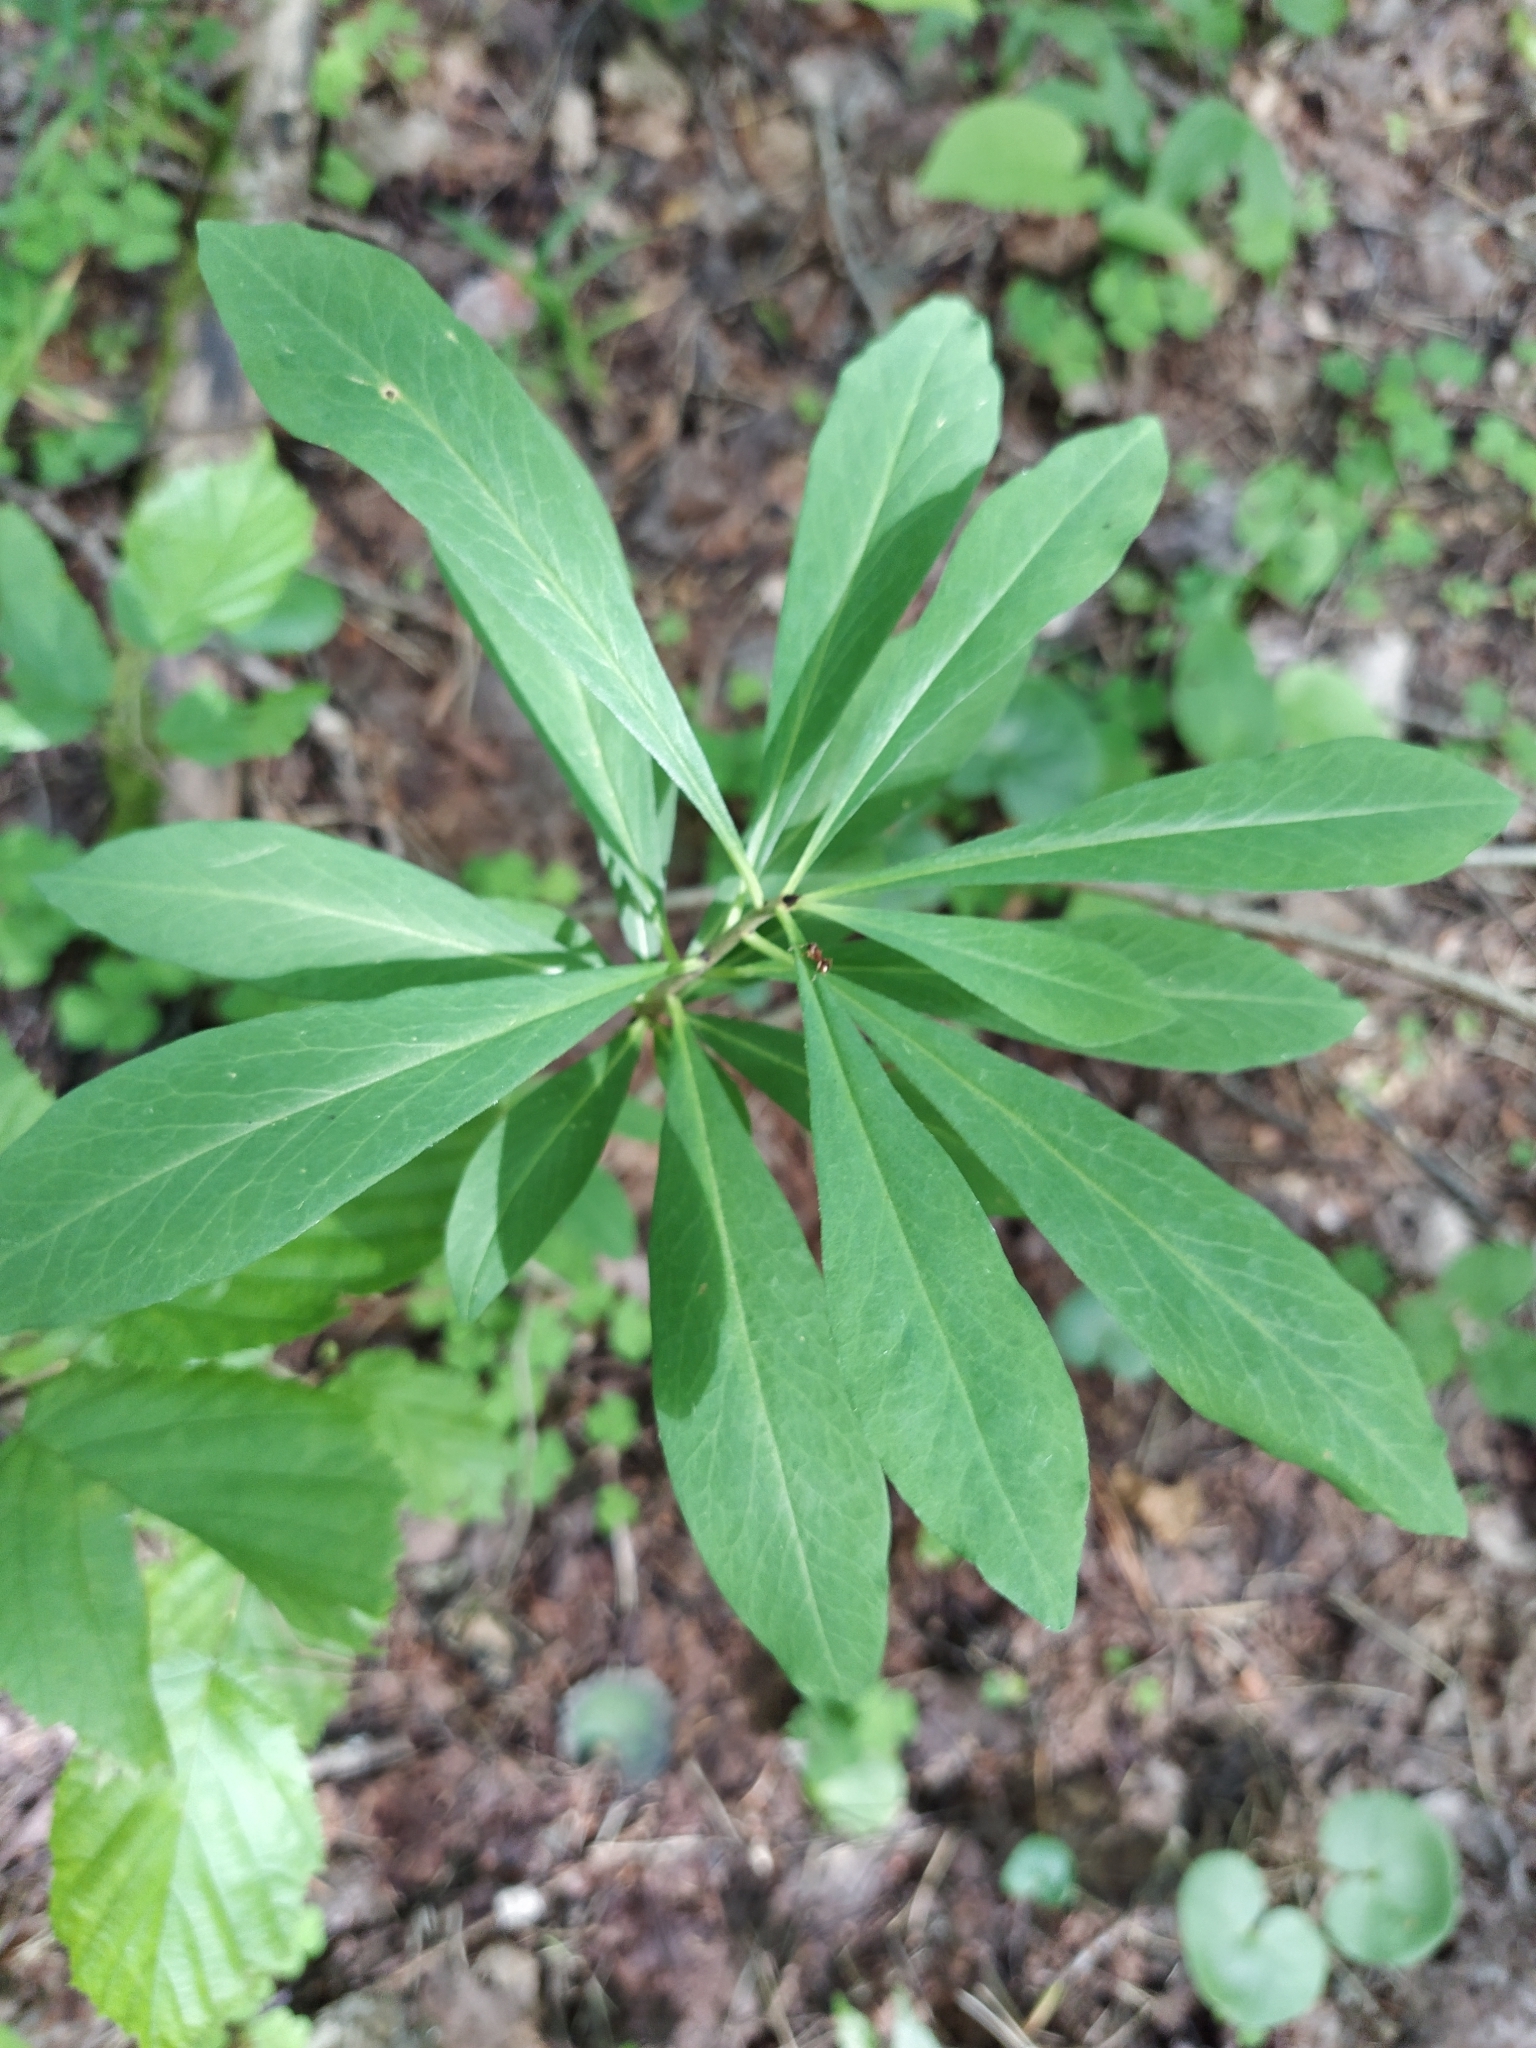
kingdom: Plantae
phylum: Tracheophyta
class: Magnoliopsida
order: Malvales
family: Thymelaeaceae
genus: Daphne
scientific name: Daphne mezereum
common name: Mezereon
